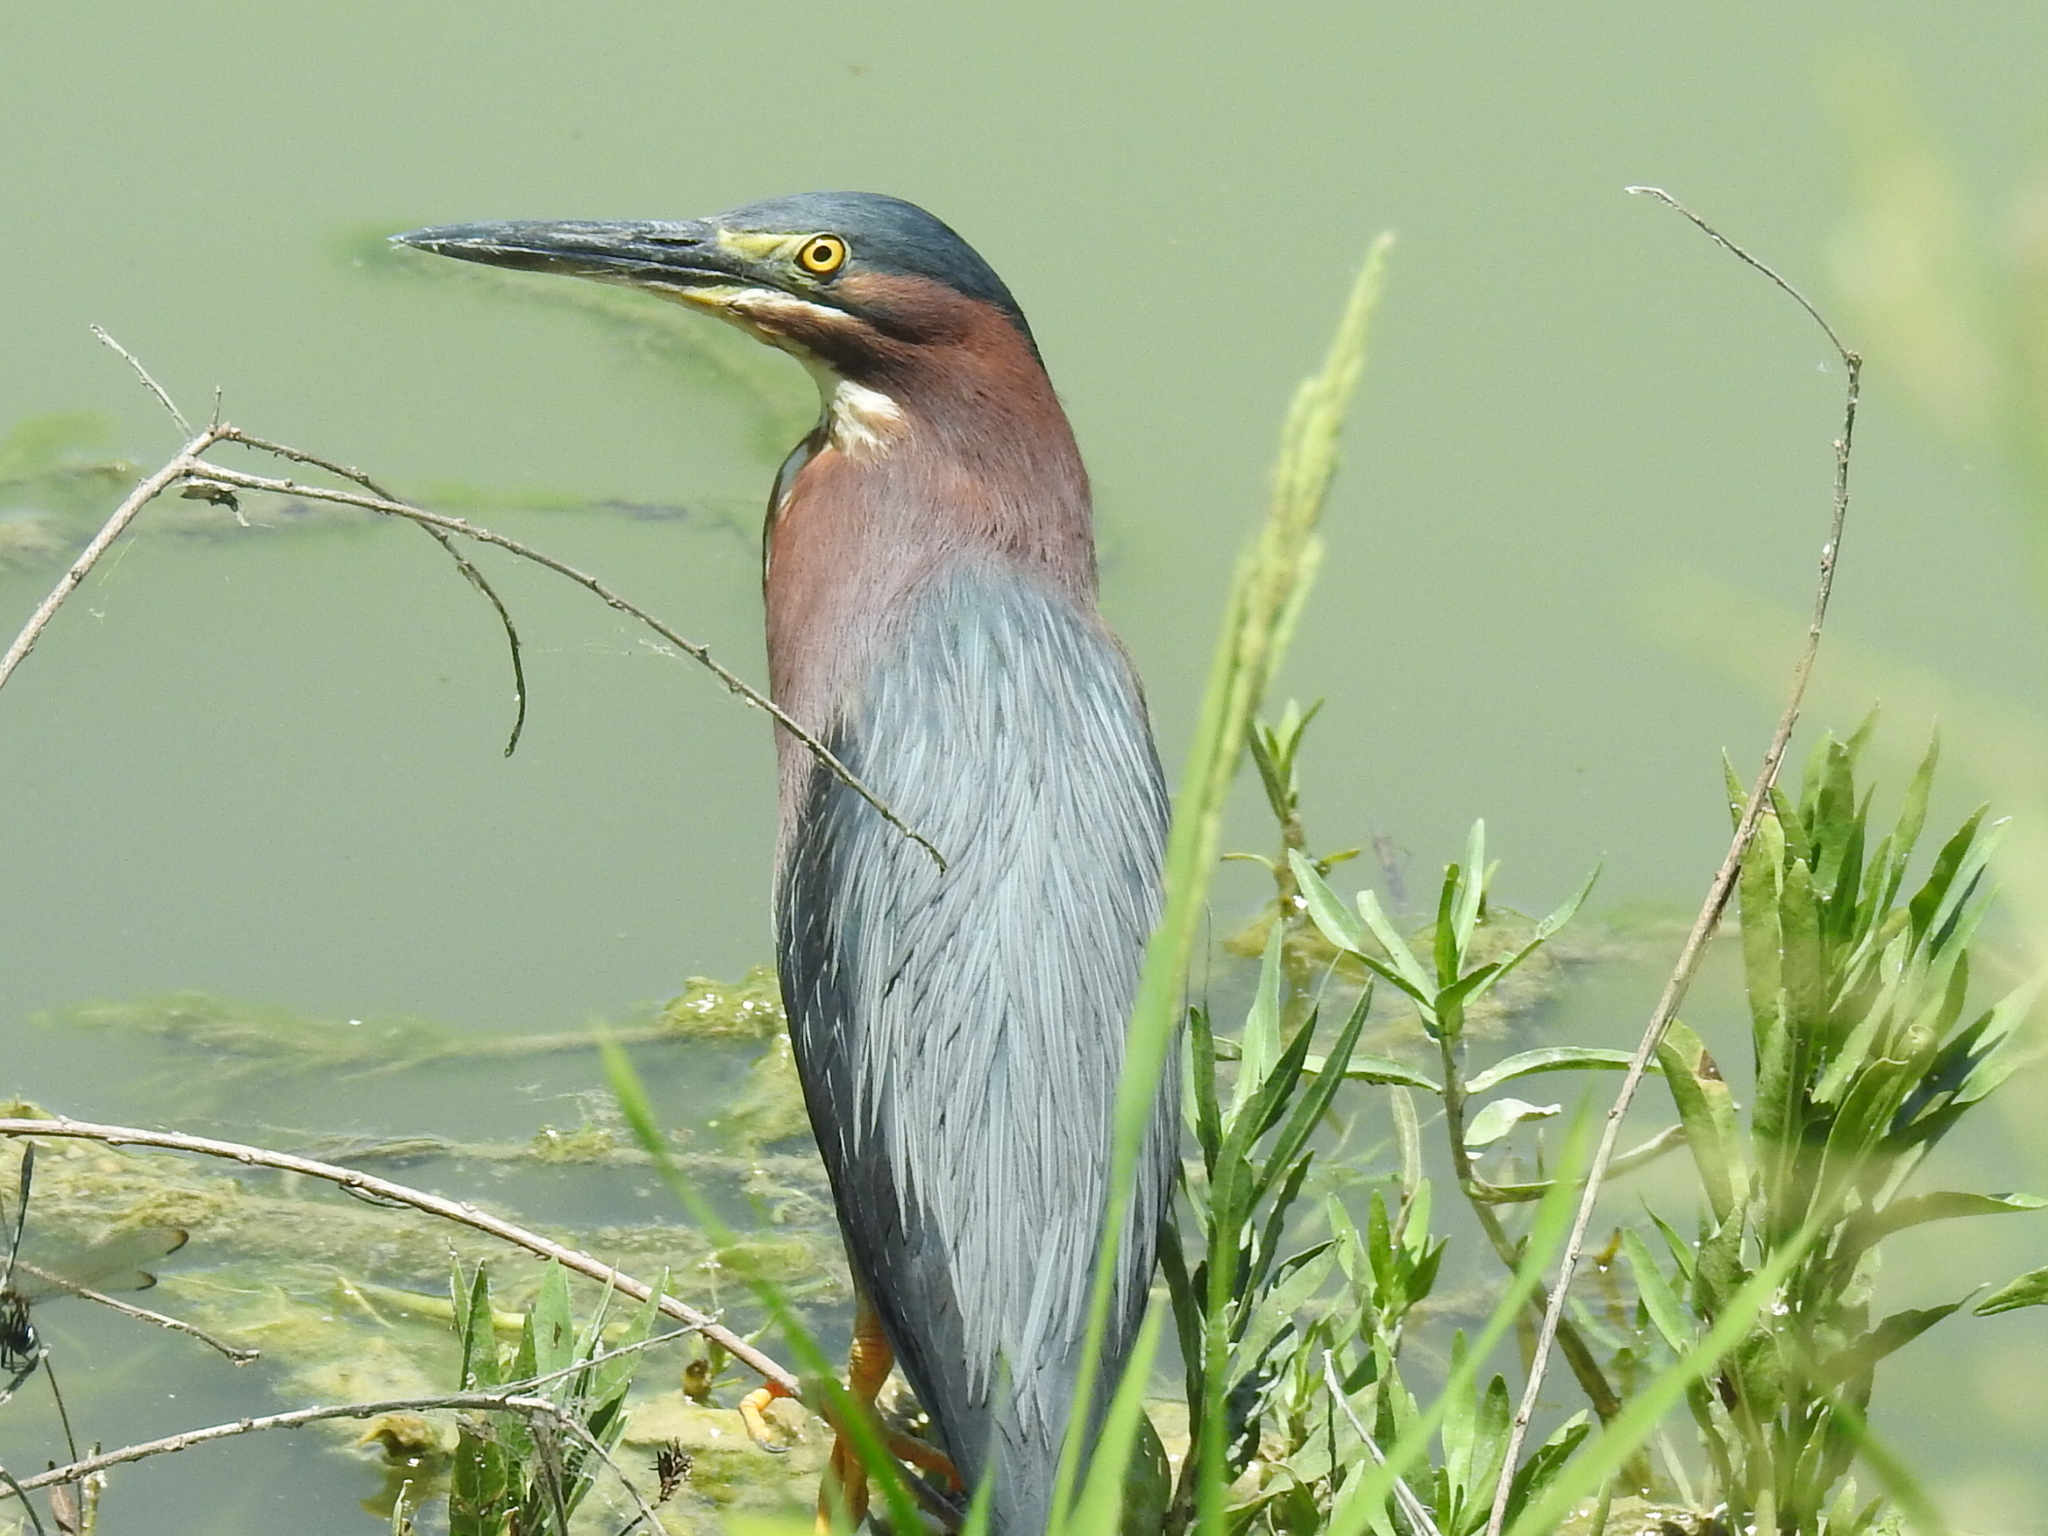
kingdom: Animalia
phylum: Chordata
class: Aves
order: Pelecaniformes
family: Ardeidae
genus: Butorides
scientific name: Butorides virescens
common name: Green heron
